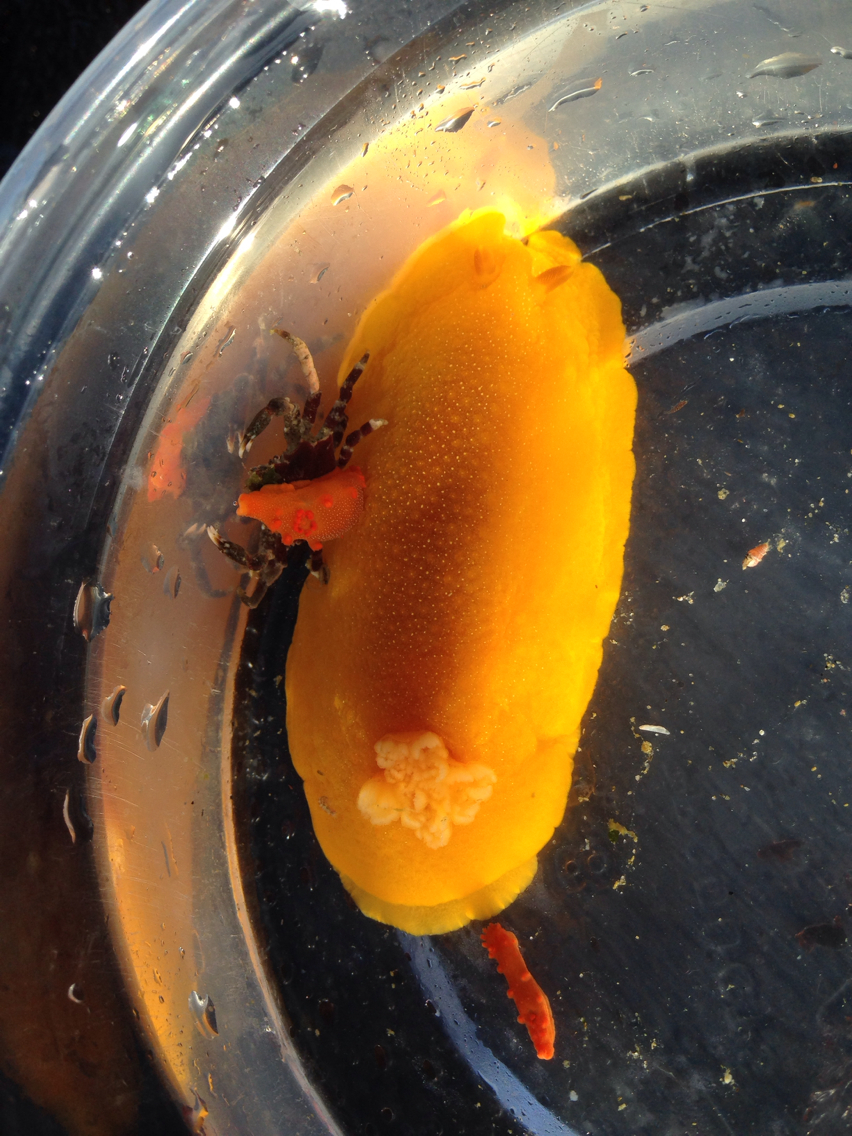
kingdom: Animalia
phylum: Mollusca
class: Gastropoda
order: Nudibranchia
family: Polyceridae
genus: Triopha
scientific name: Triopha maculata
